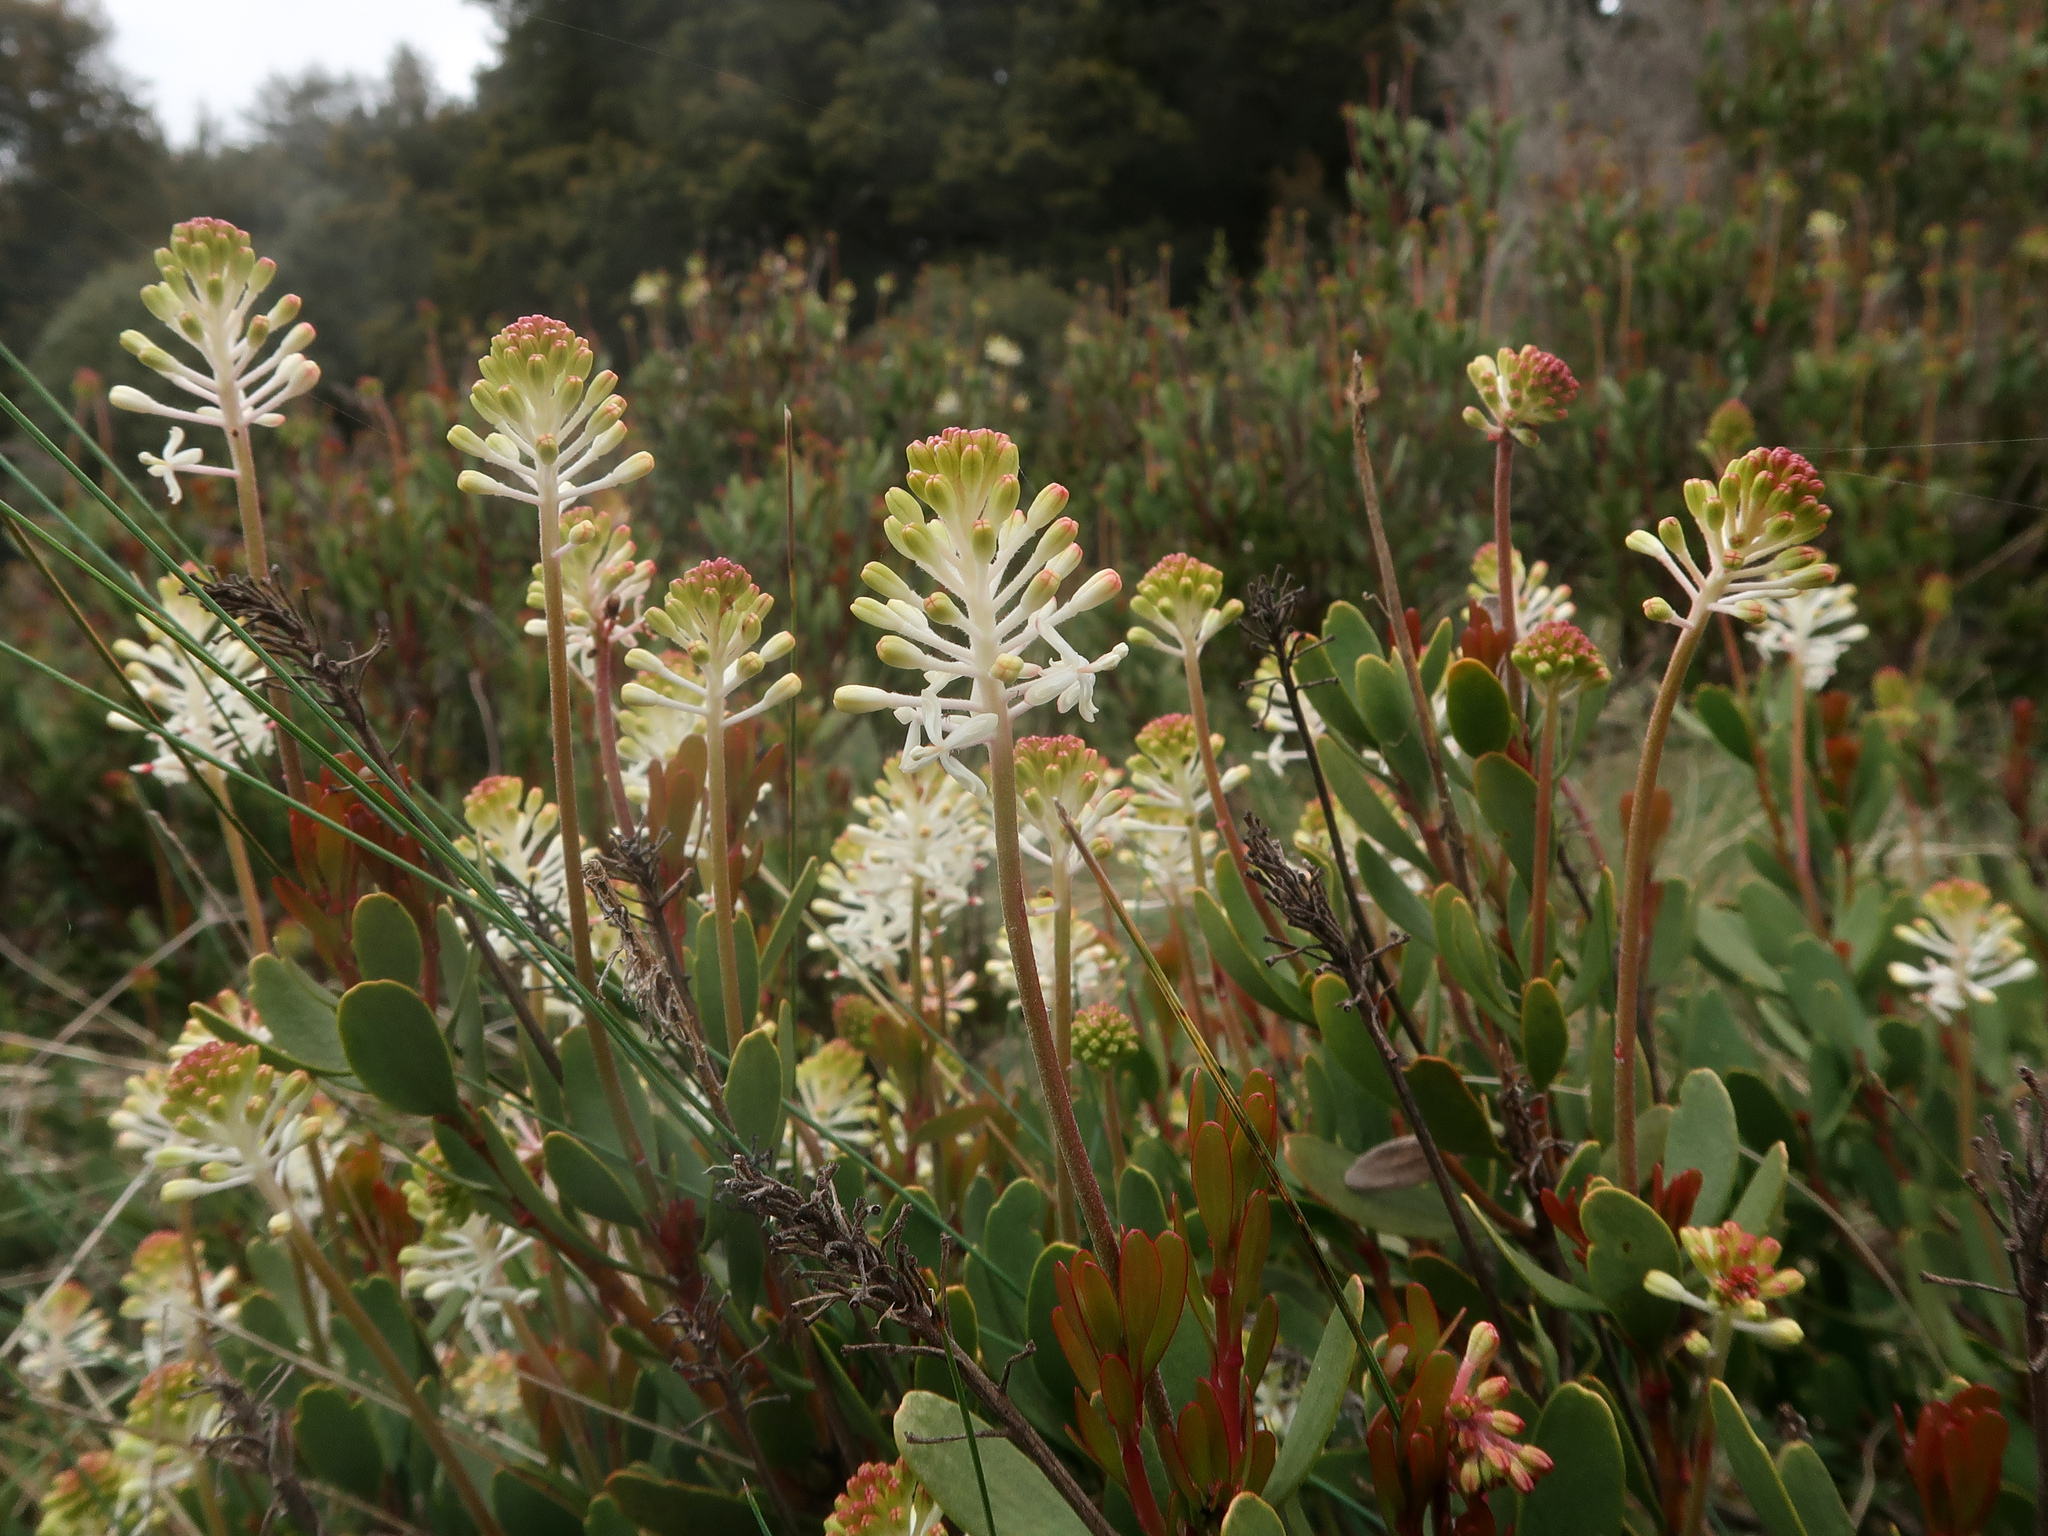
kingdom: Plantae
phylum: Tracheophyta
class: Magnoliopsida
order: Proteales
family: Proteaceae
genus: Bellendena
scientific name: Bellendena montana
